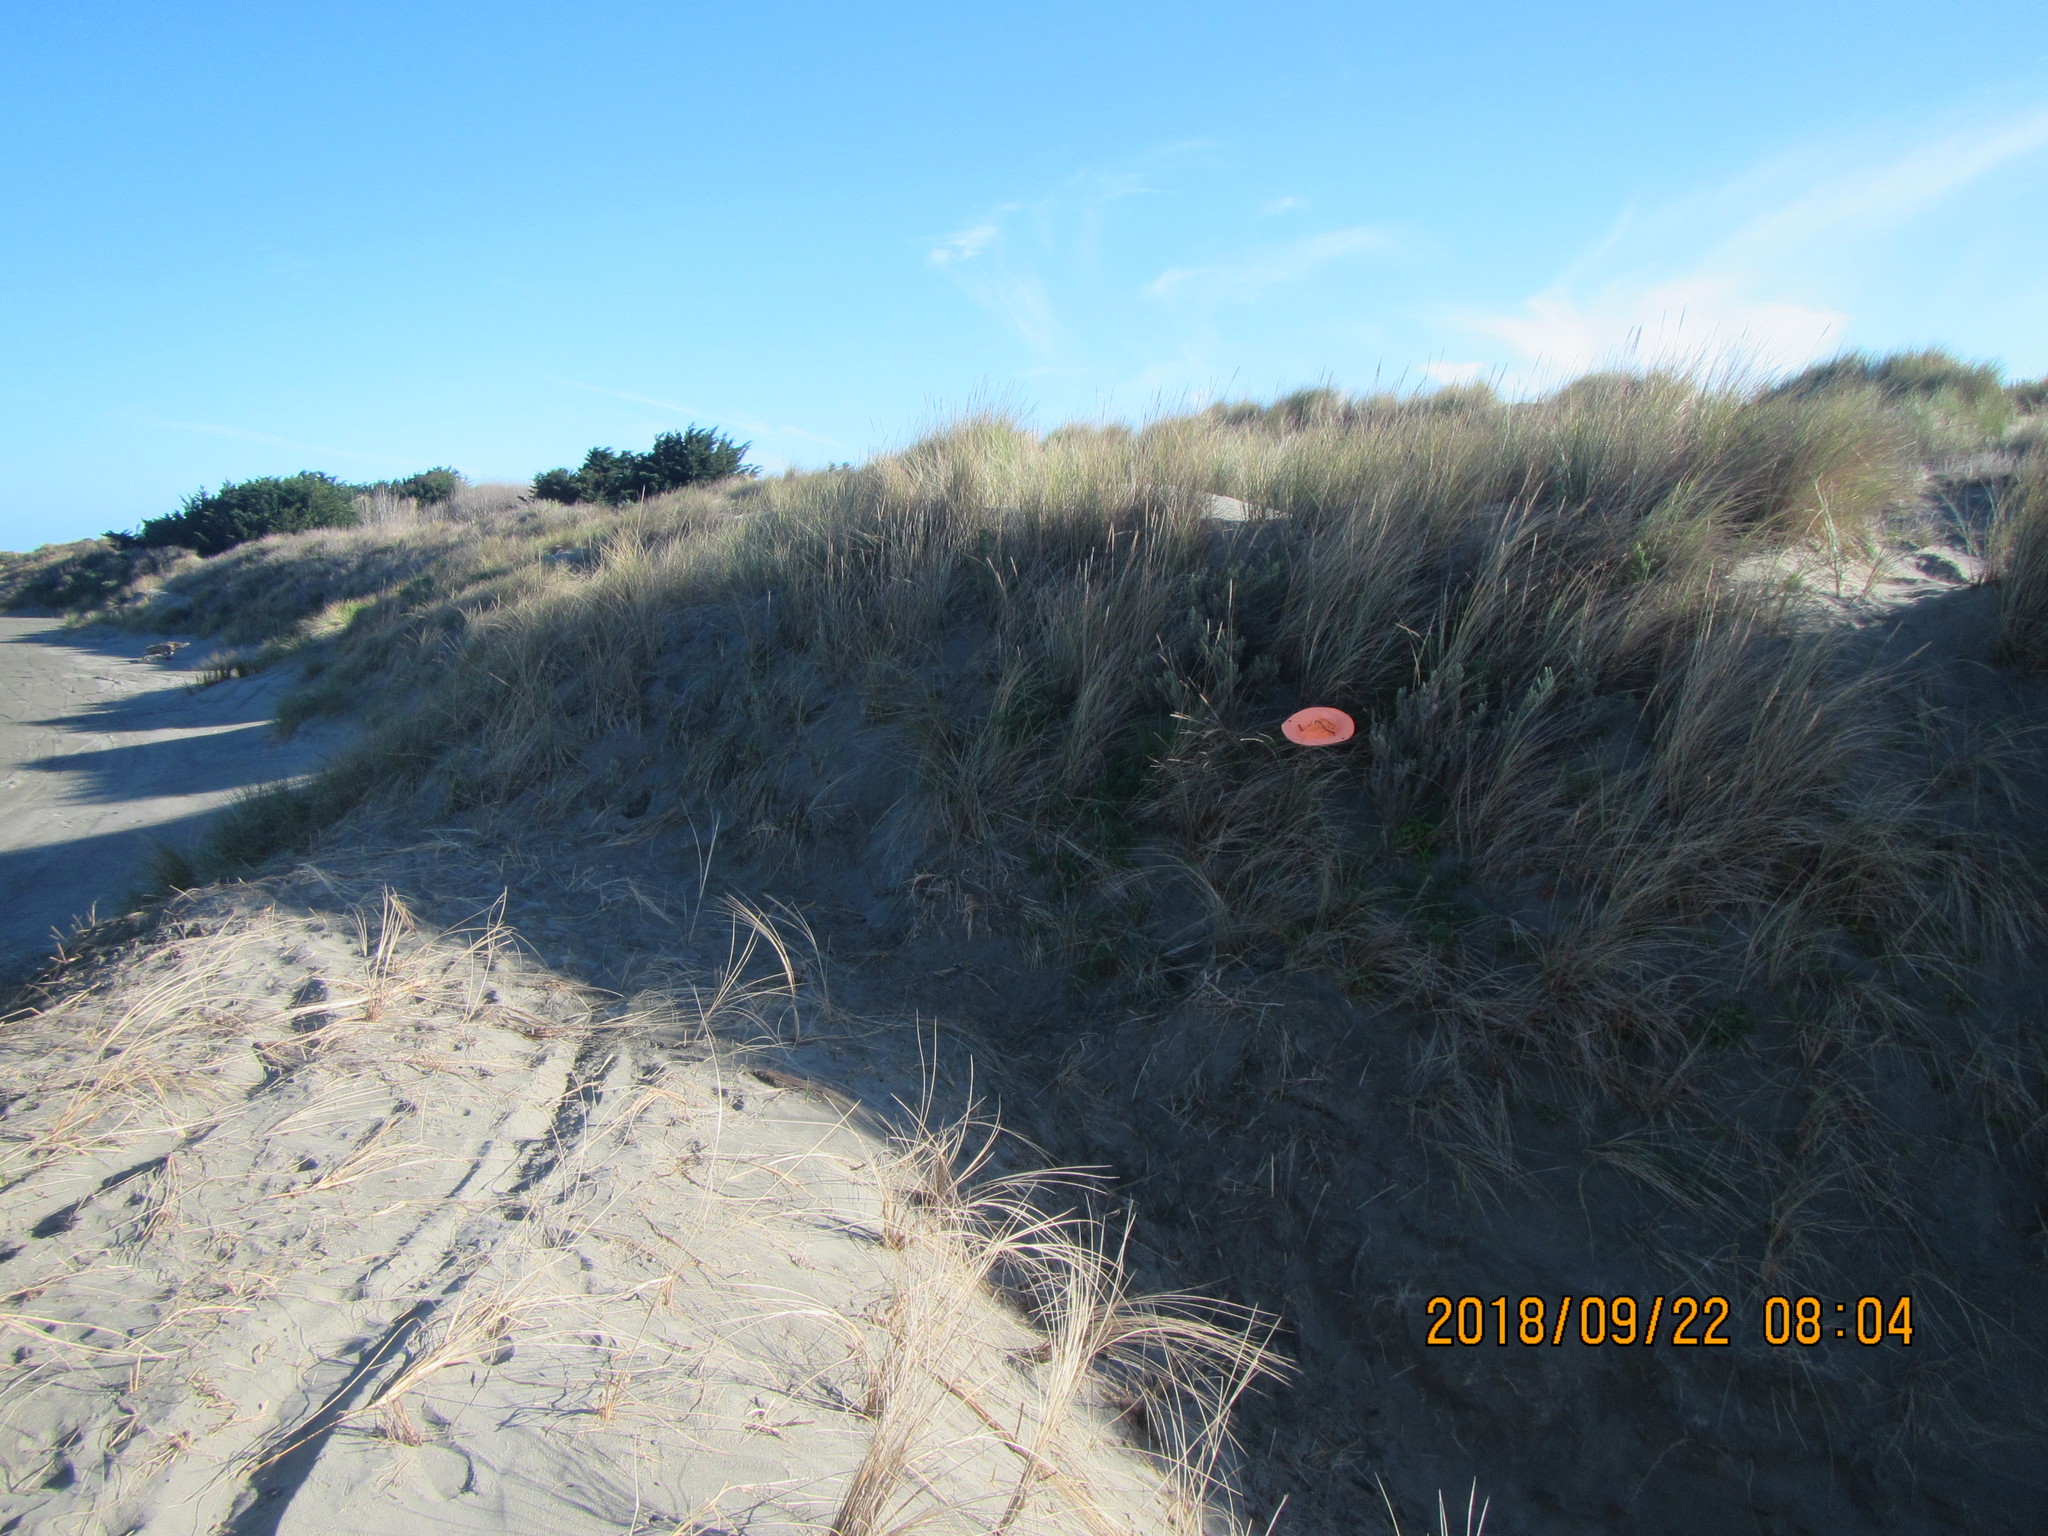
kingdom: Plantae
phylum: Tracheophyta
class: Magnoliopsida
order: Gentianales
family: Rubiaceae
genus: Coprosma
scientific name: Coprosma acerosa
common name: Sand coprosma
